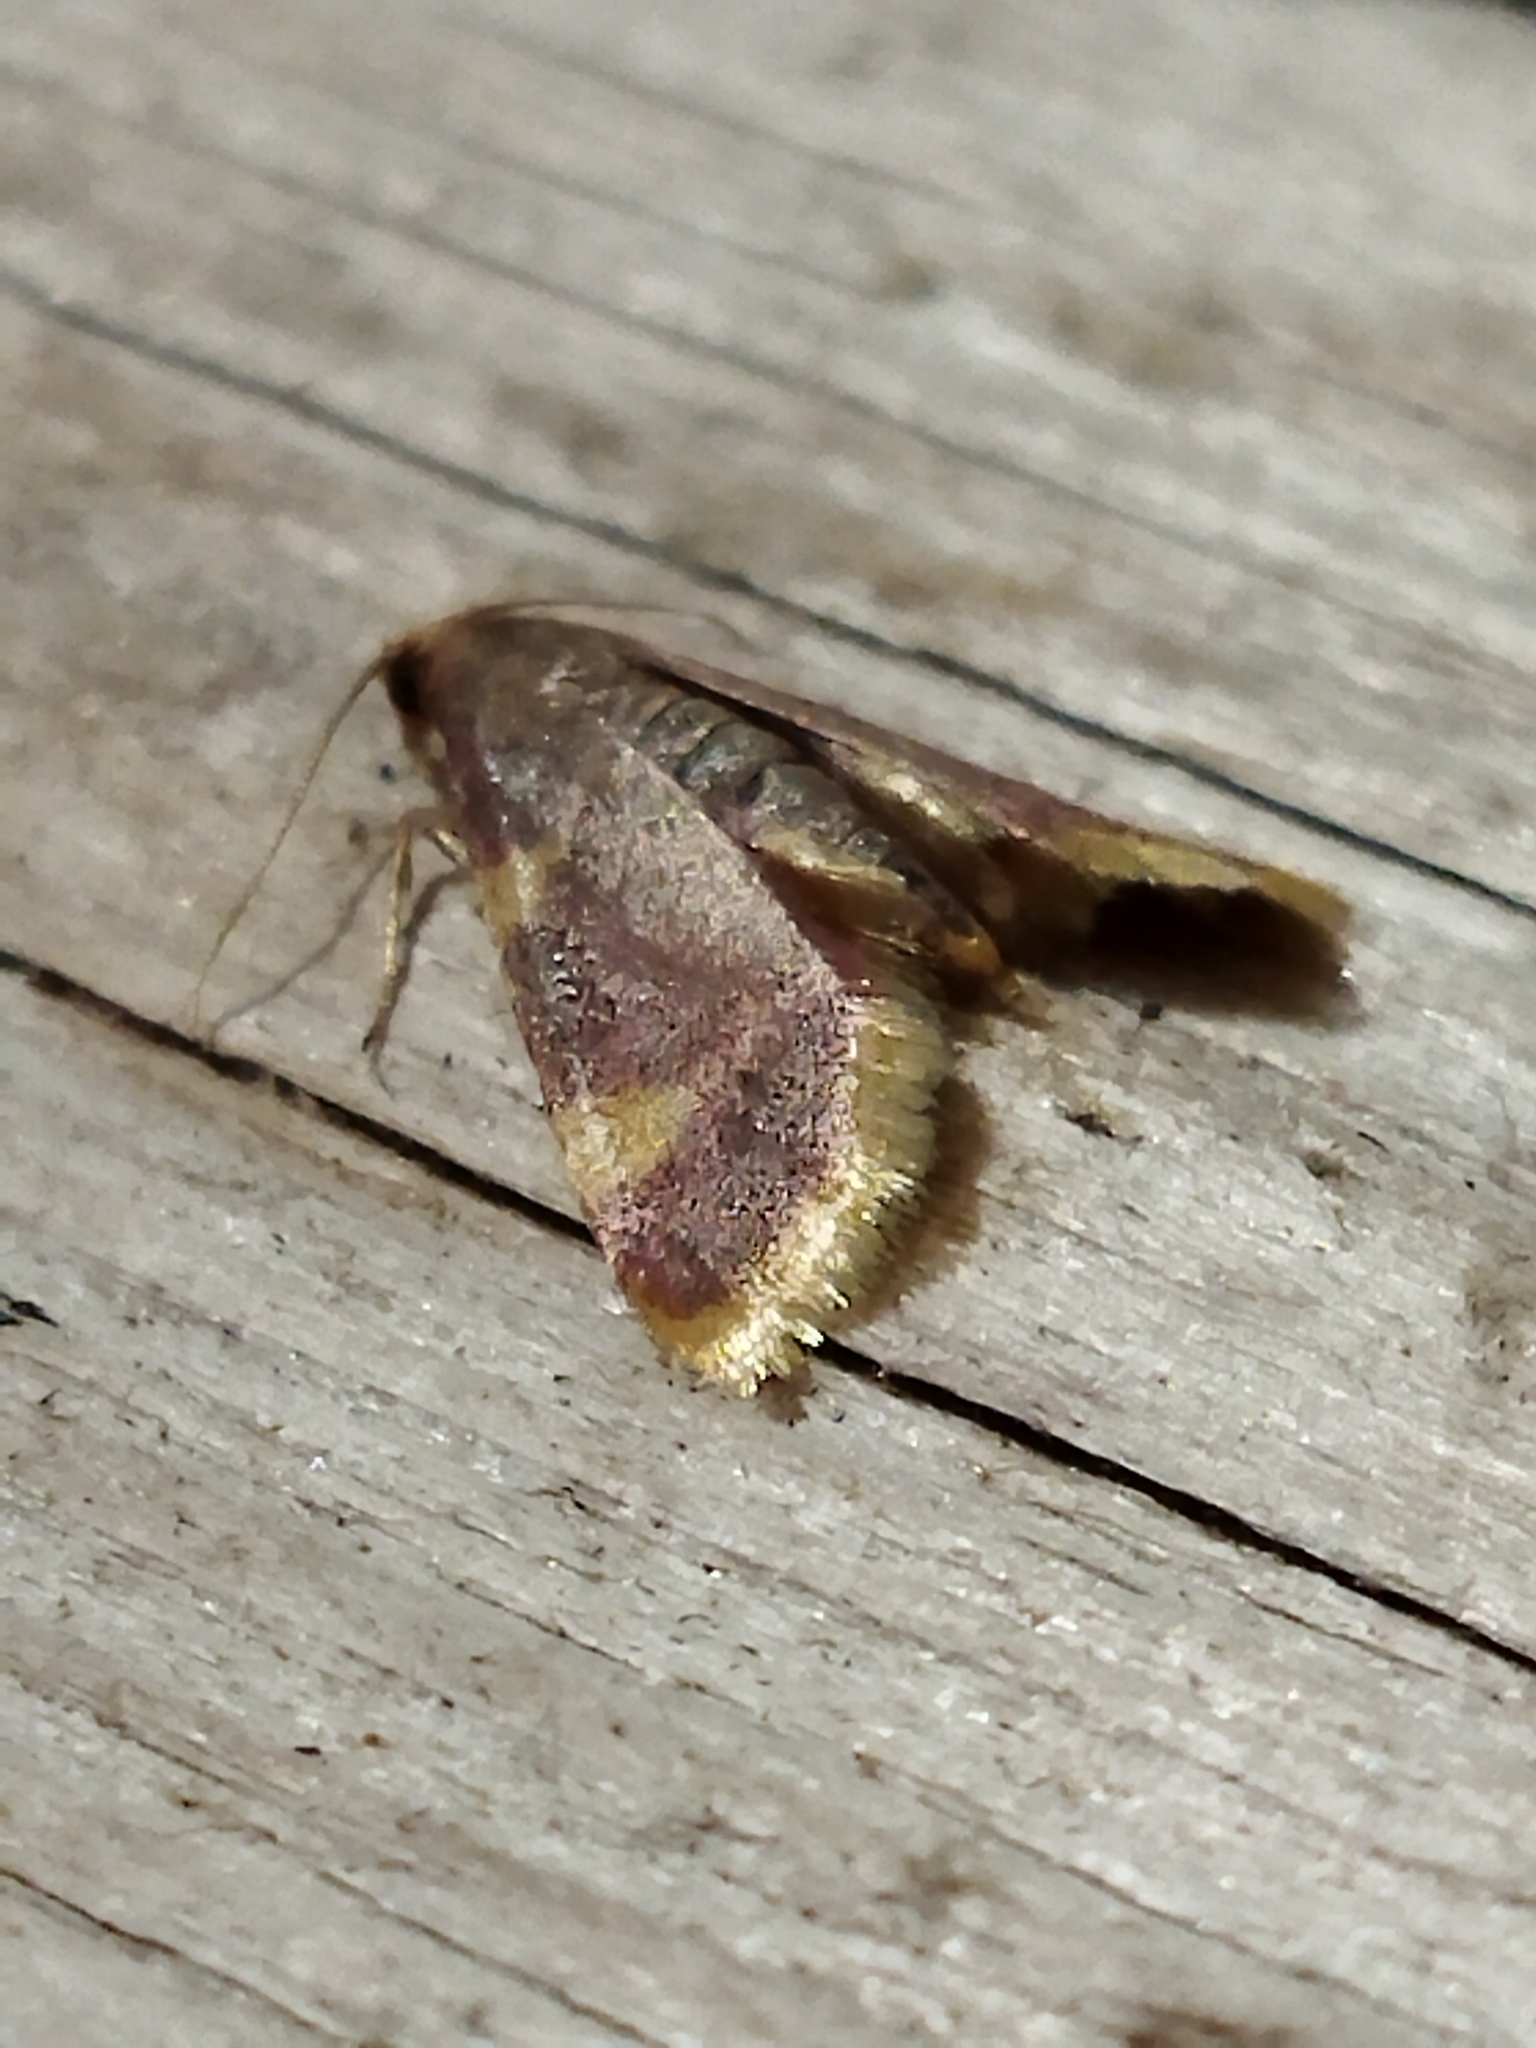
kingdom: Animalia
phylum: Arthropoda
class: Insecta
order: Lepidoptera
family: Pyralidae
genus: Hypsopygia
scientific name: Hypsopygia costalis
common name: Gold triangle
